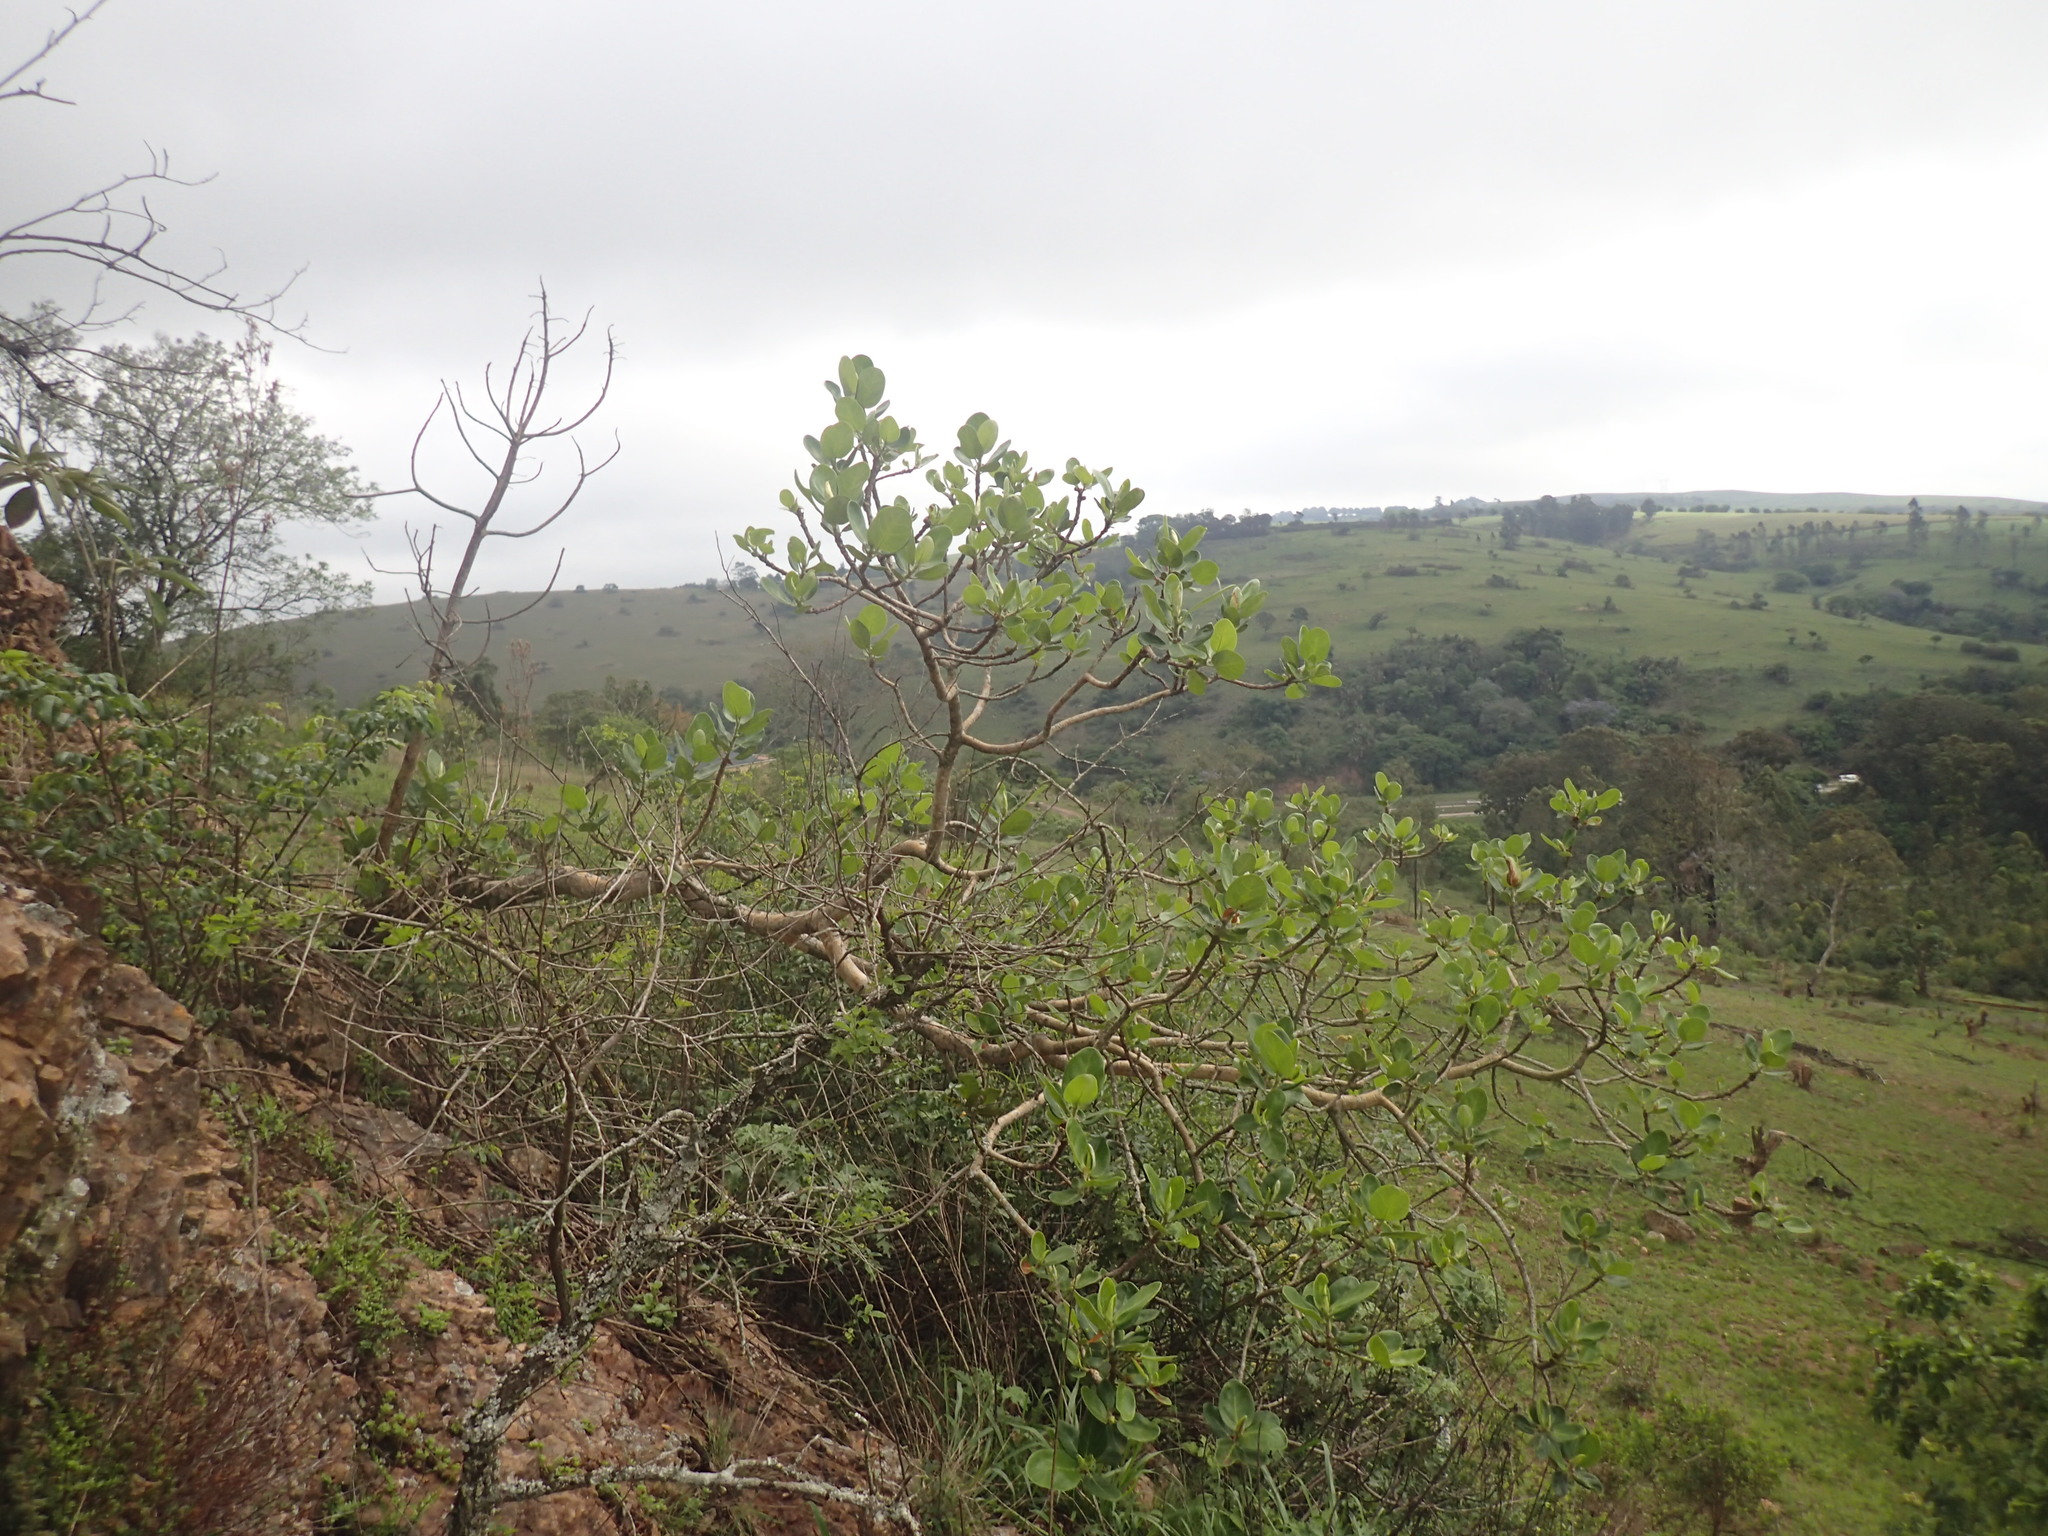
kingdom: Plantae
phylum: Tracheophyta
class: Magnoliopsida
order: Rosales
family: Moraceae
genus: Ficus
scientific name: Ficus glumosa
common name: Hairy rock fig
